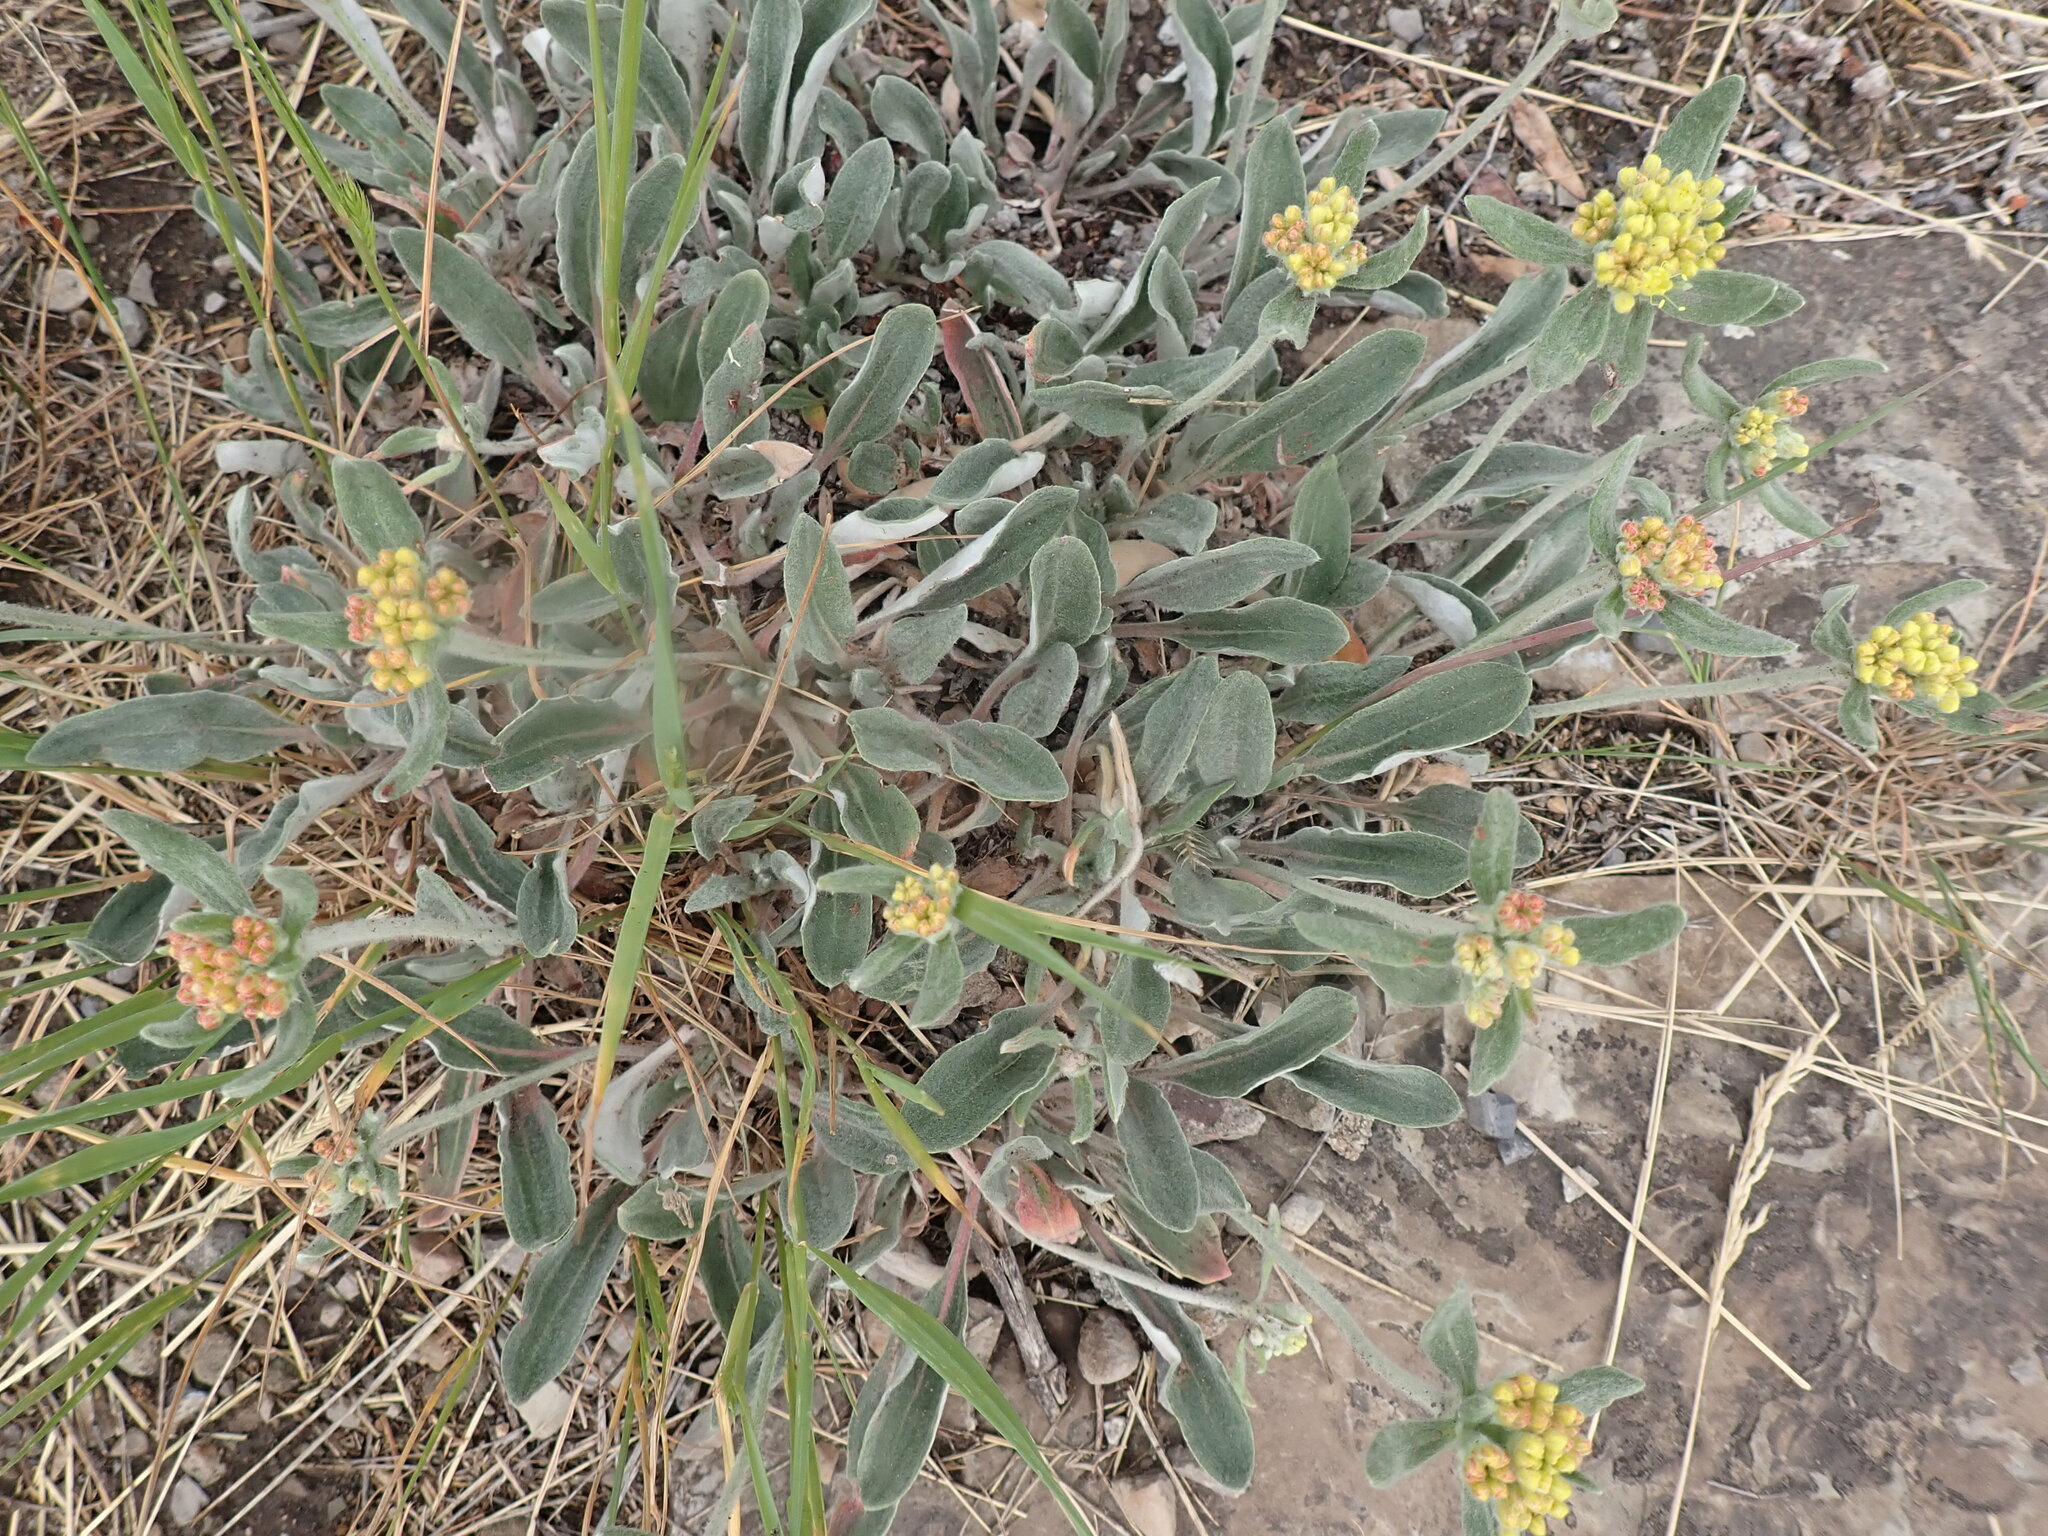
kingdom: Plantae
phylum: Tracheophyta
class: Magnoliopsida
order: Caryophyllales
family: Polygonaceae
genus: Eriogonum
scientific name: Eriogonum flavum
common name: Alpine golden wild buckwheat
